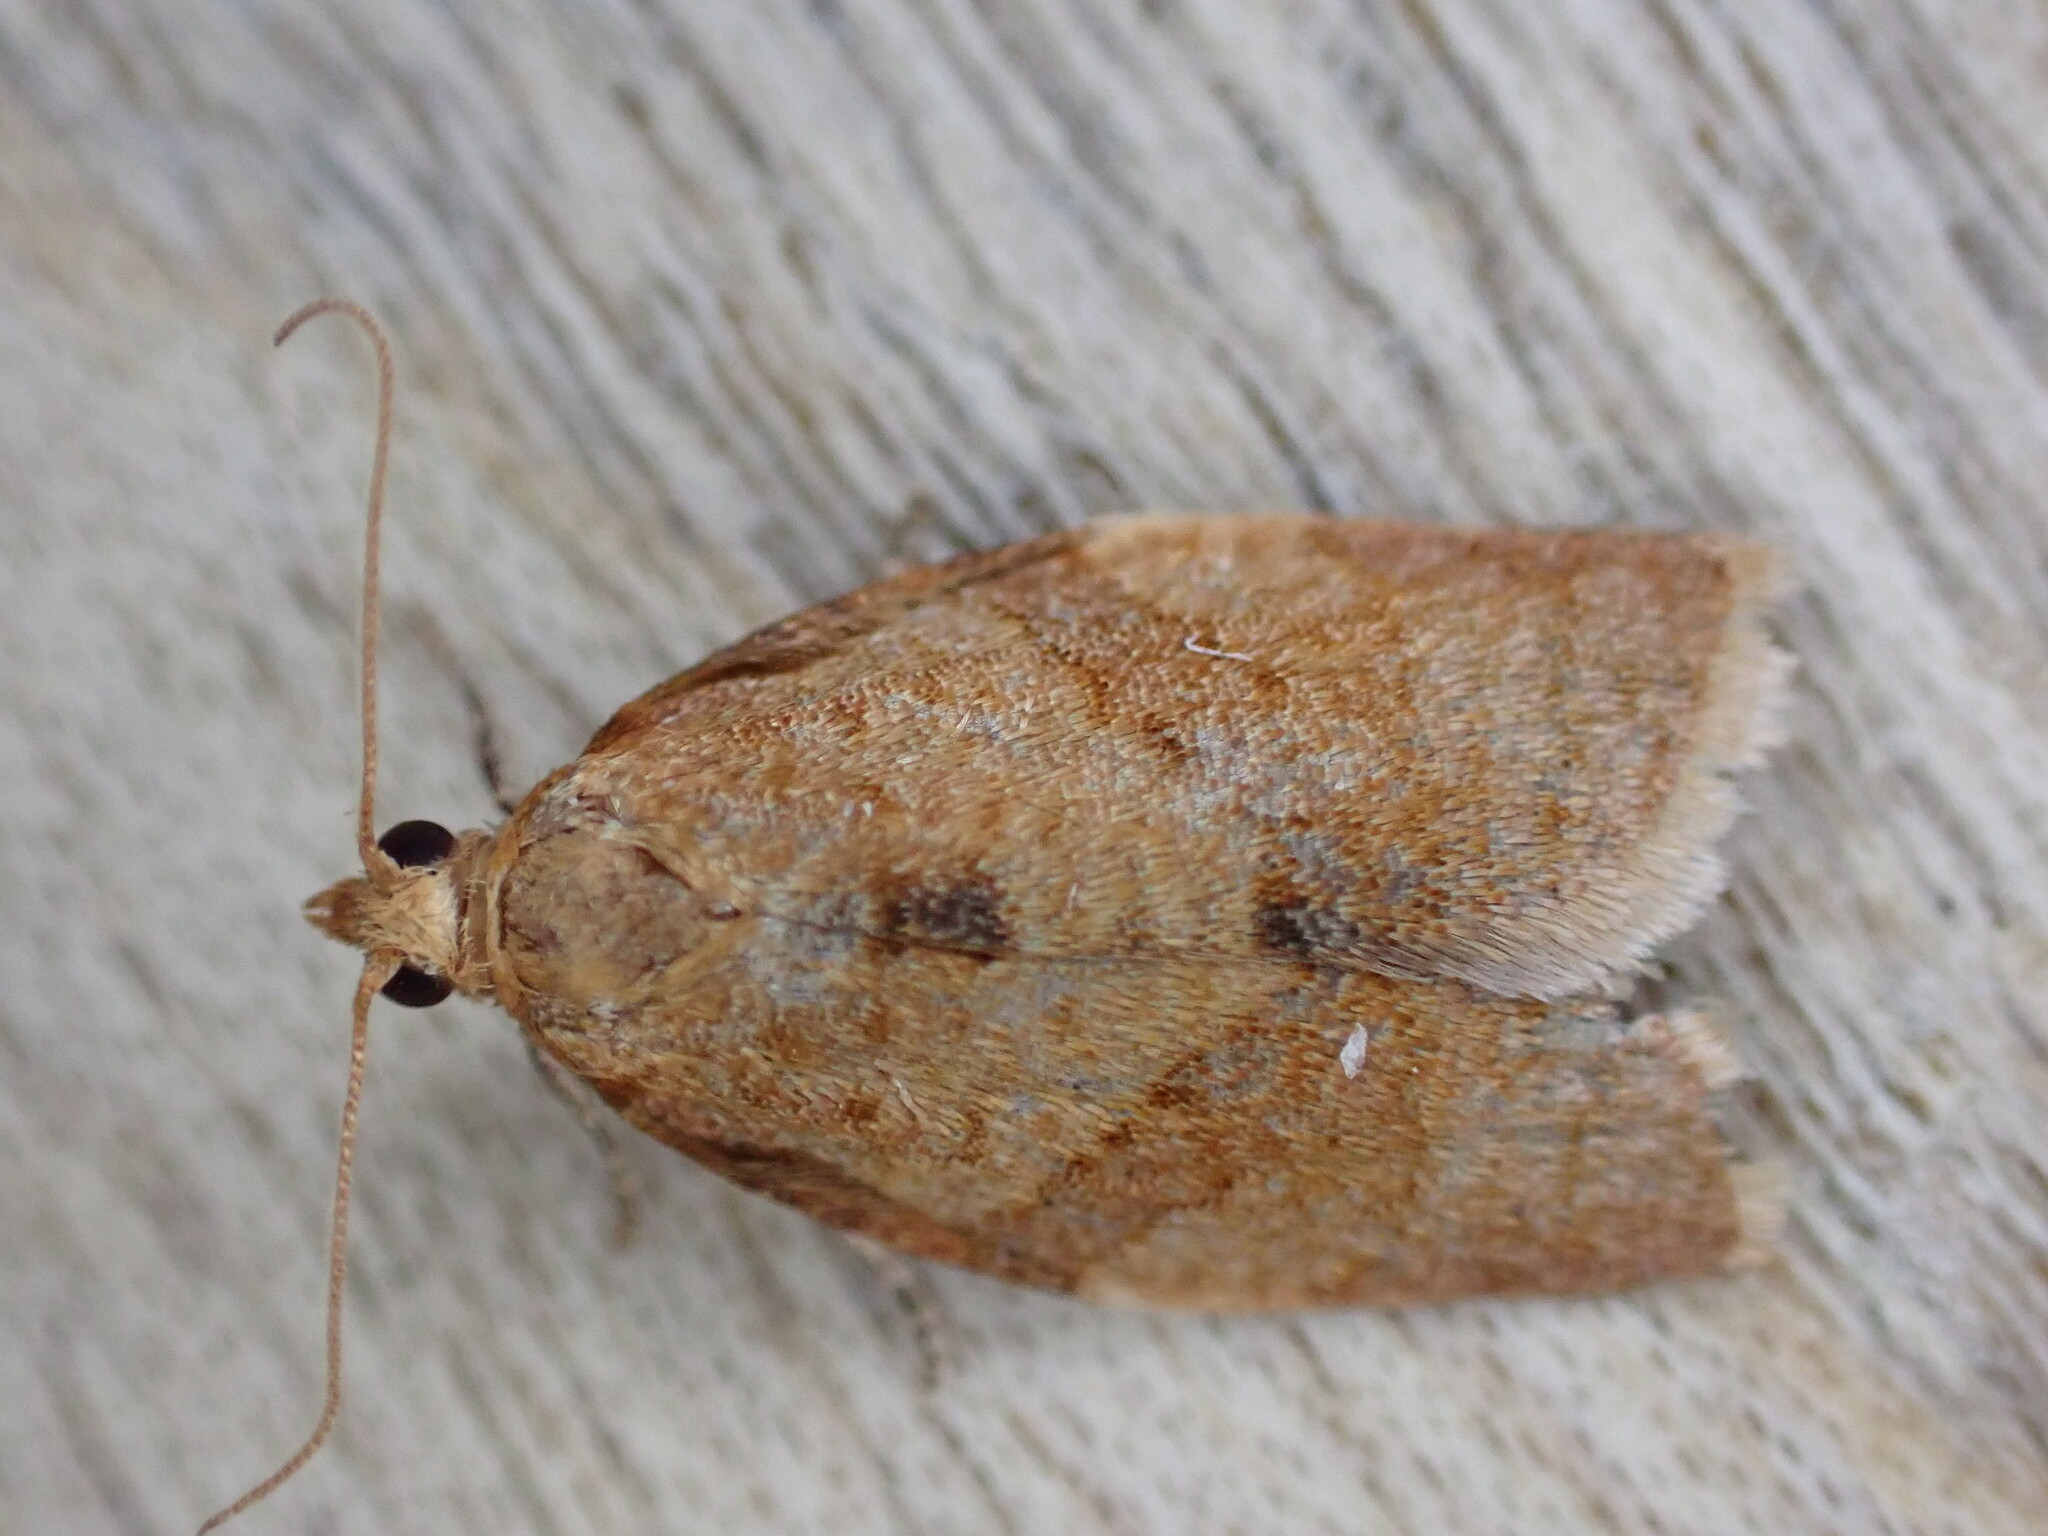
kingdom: Animalia
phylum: Arthropoda
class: Insecta
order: Lepidoptera
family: Tortricidae
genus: Clepsis
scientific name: Clepsis consimilana
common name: Privet tortrix
